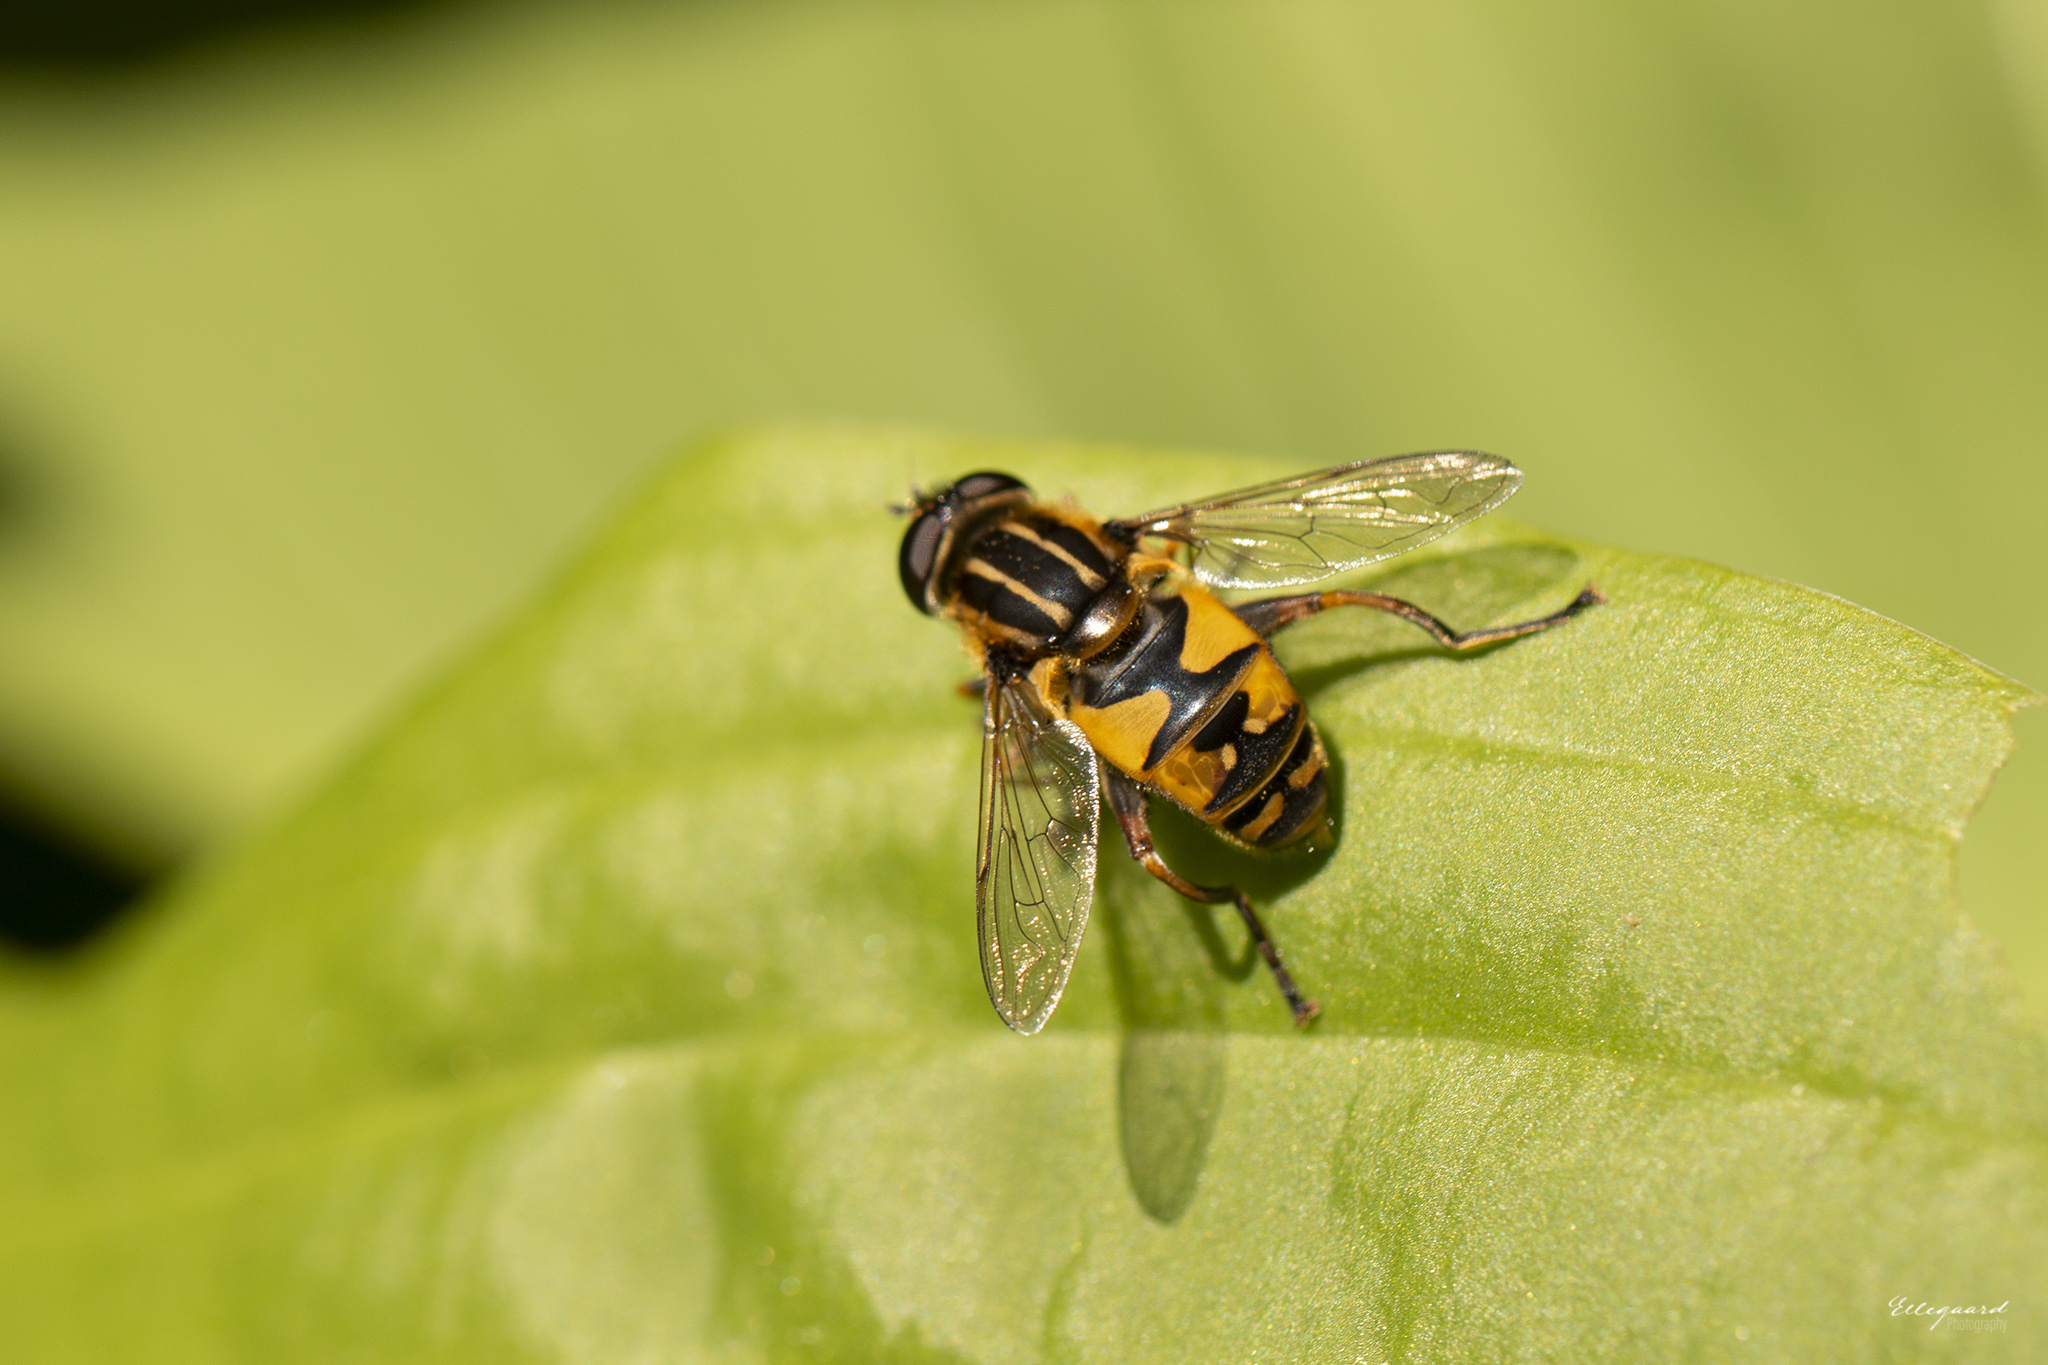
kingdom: Animalia
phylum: Arthropoda
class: Insecta
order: Diptera
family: Syrphidae
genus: Helophilus
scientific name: Helophilus pendulus
